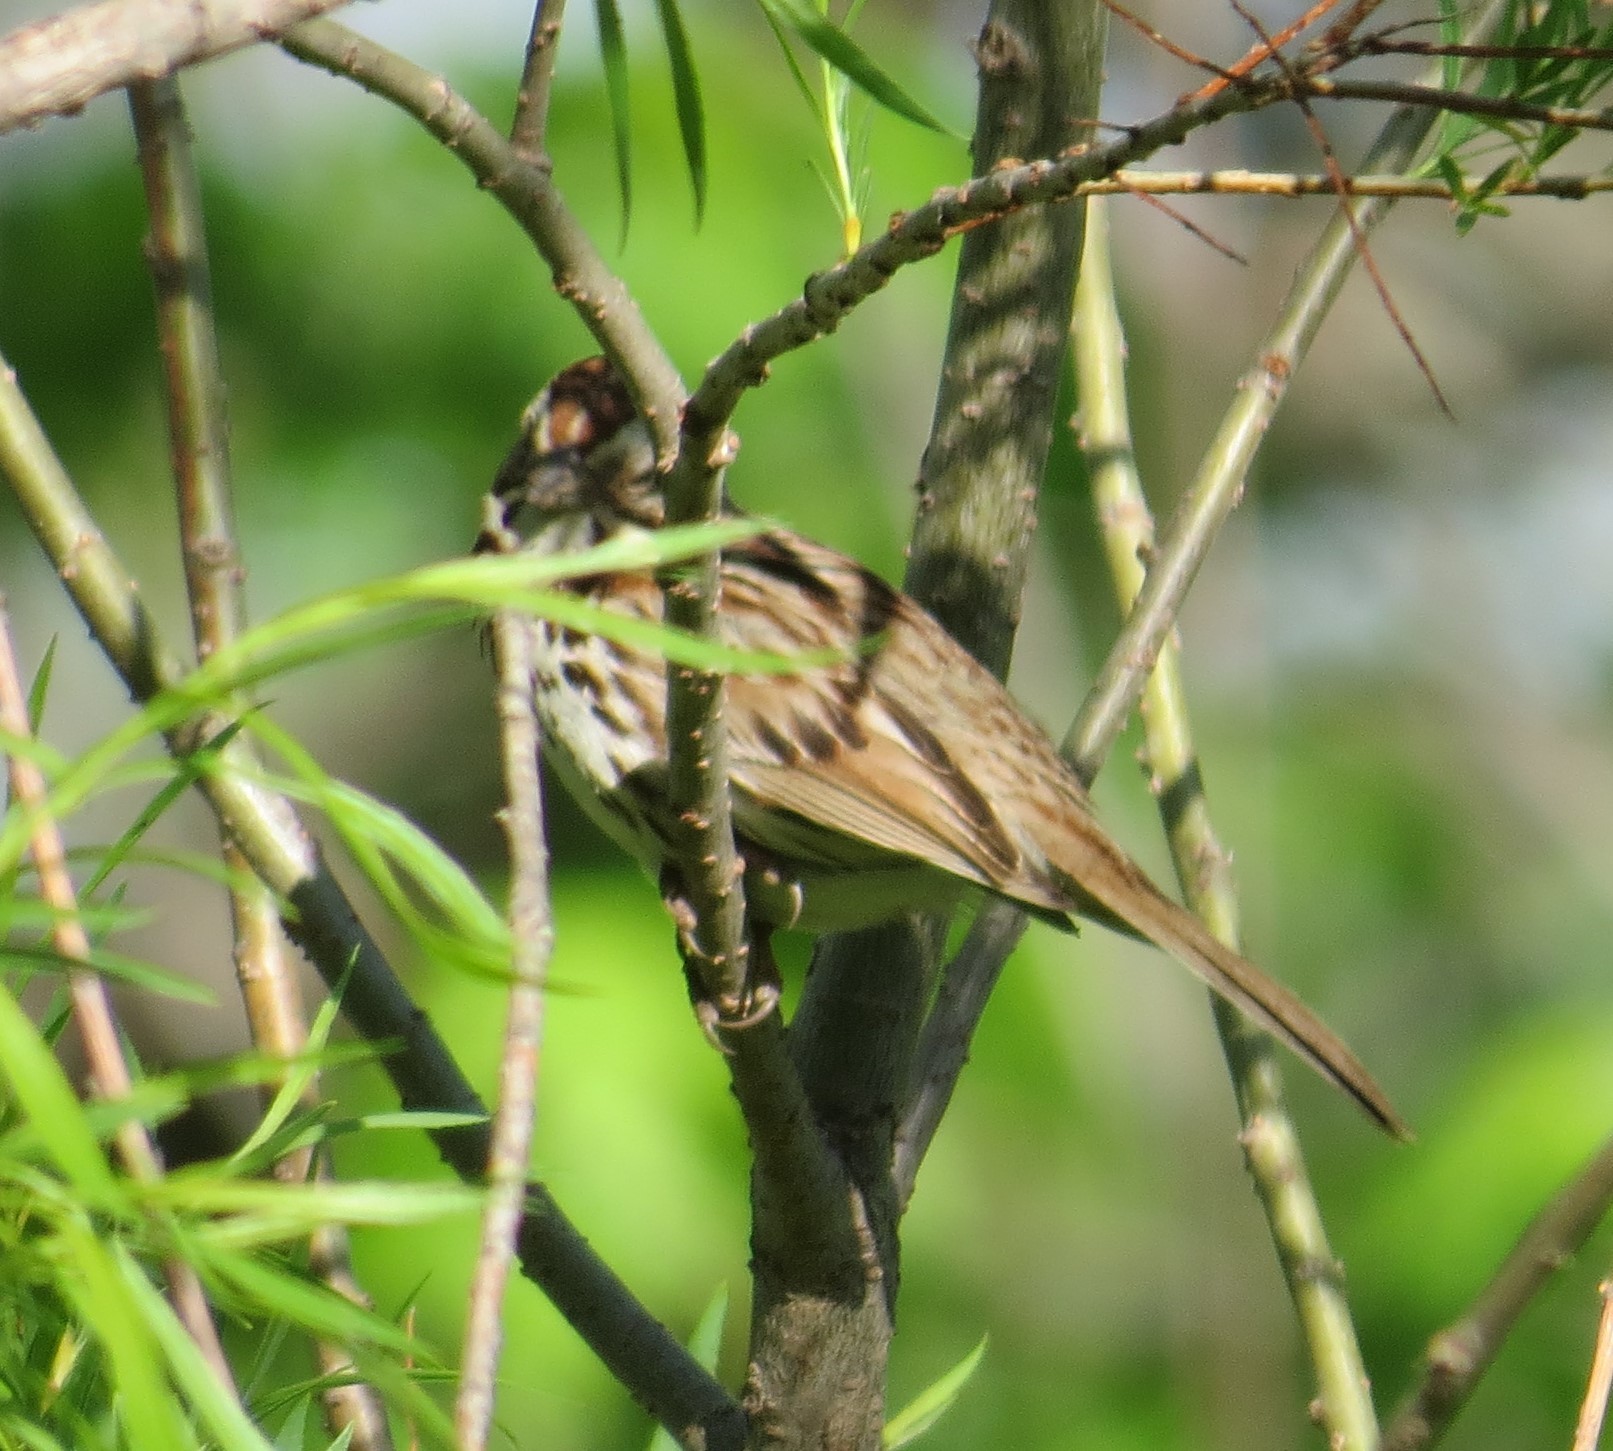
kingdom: Animalia
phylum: Chordata
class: Aves
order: Passeriformes
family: Passerellidae
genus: Melospiza
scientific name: Melospiza melodia
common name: Song sparrow
